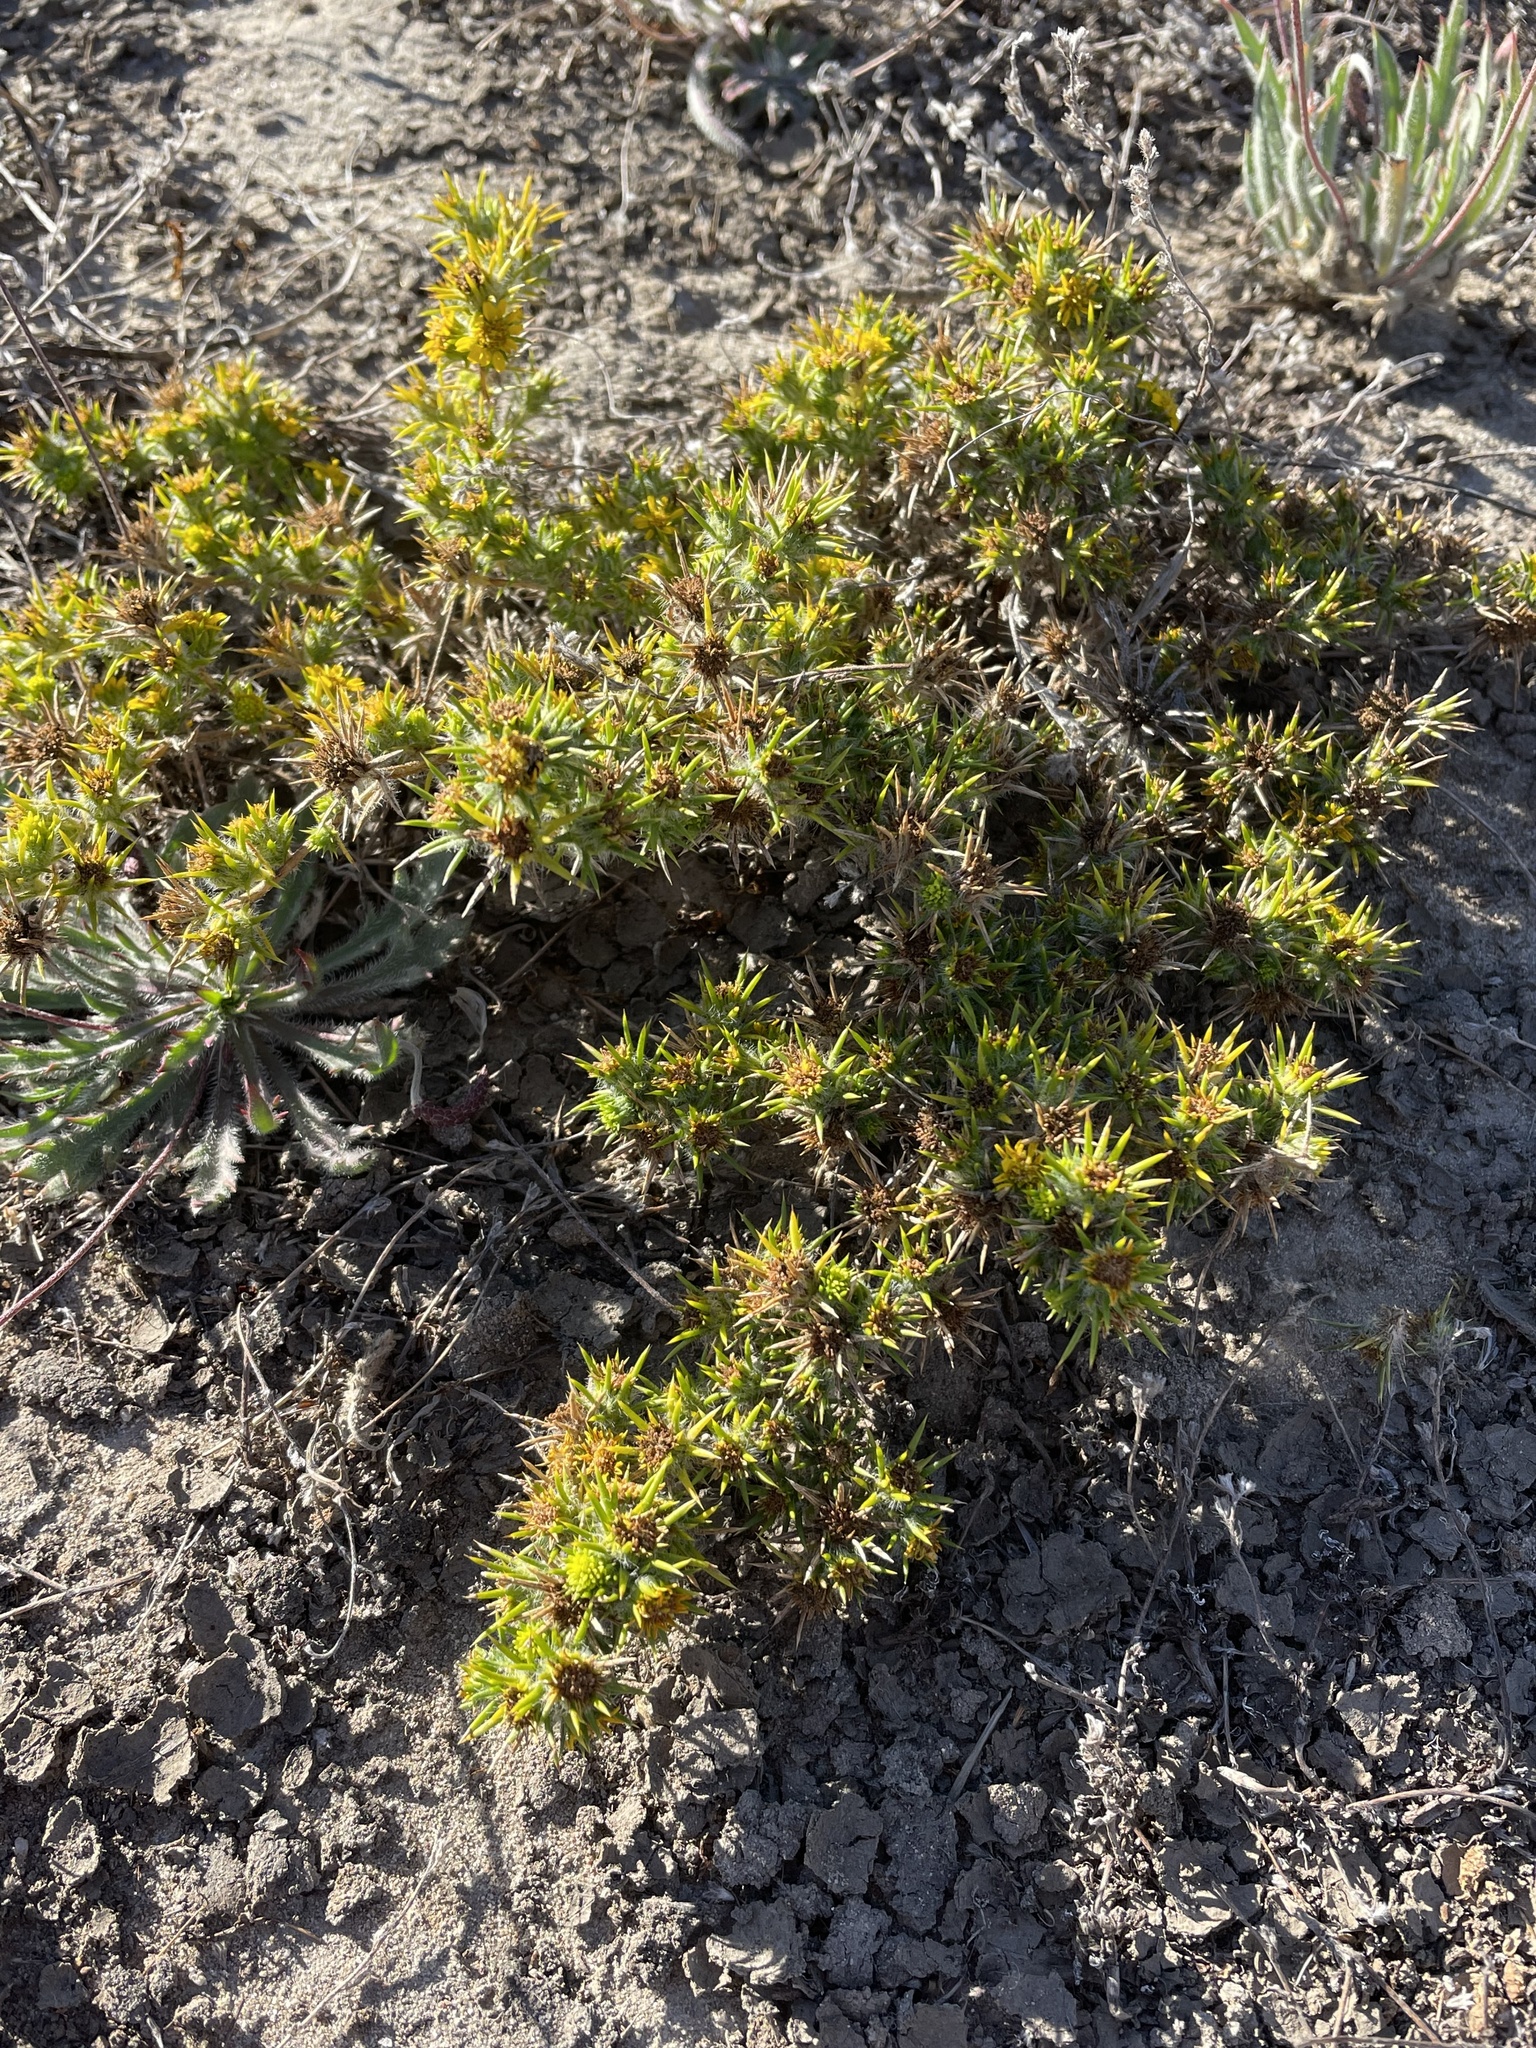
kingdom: Plantae
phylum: Tracheophyta
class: Magnoliopsida
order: Asterales
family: Asteraceae
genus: Centromadia
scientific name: Centromadia parryi
